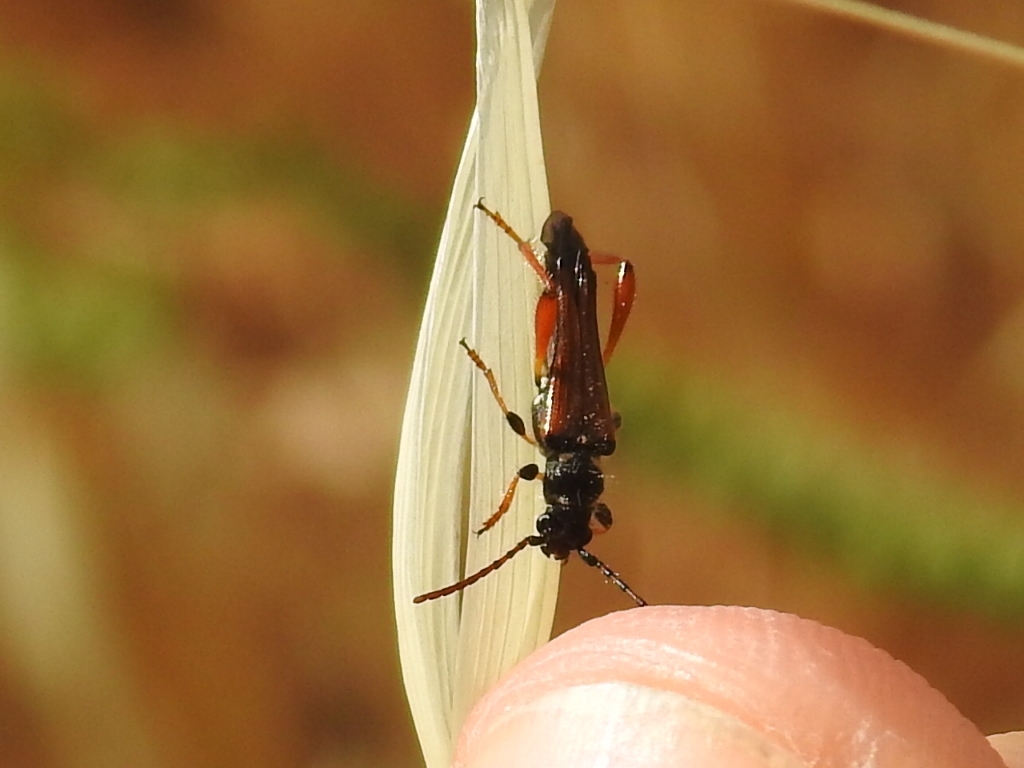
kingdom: Animalia
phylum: Arthropoda
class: Insecta
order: Coleoptera
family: Cerambycidae
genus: Stenopterus
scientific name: Stenopterus rufus
